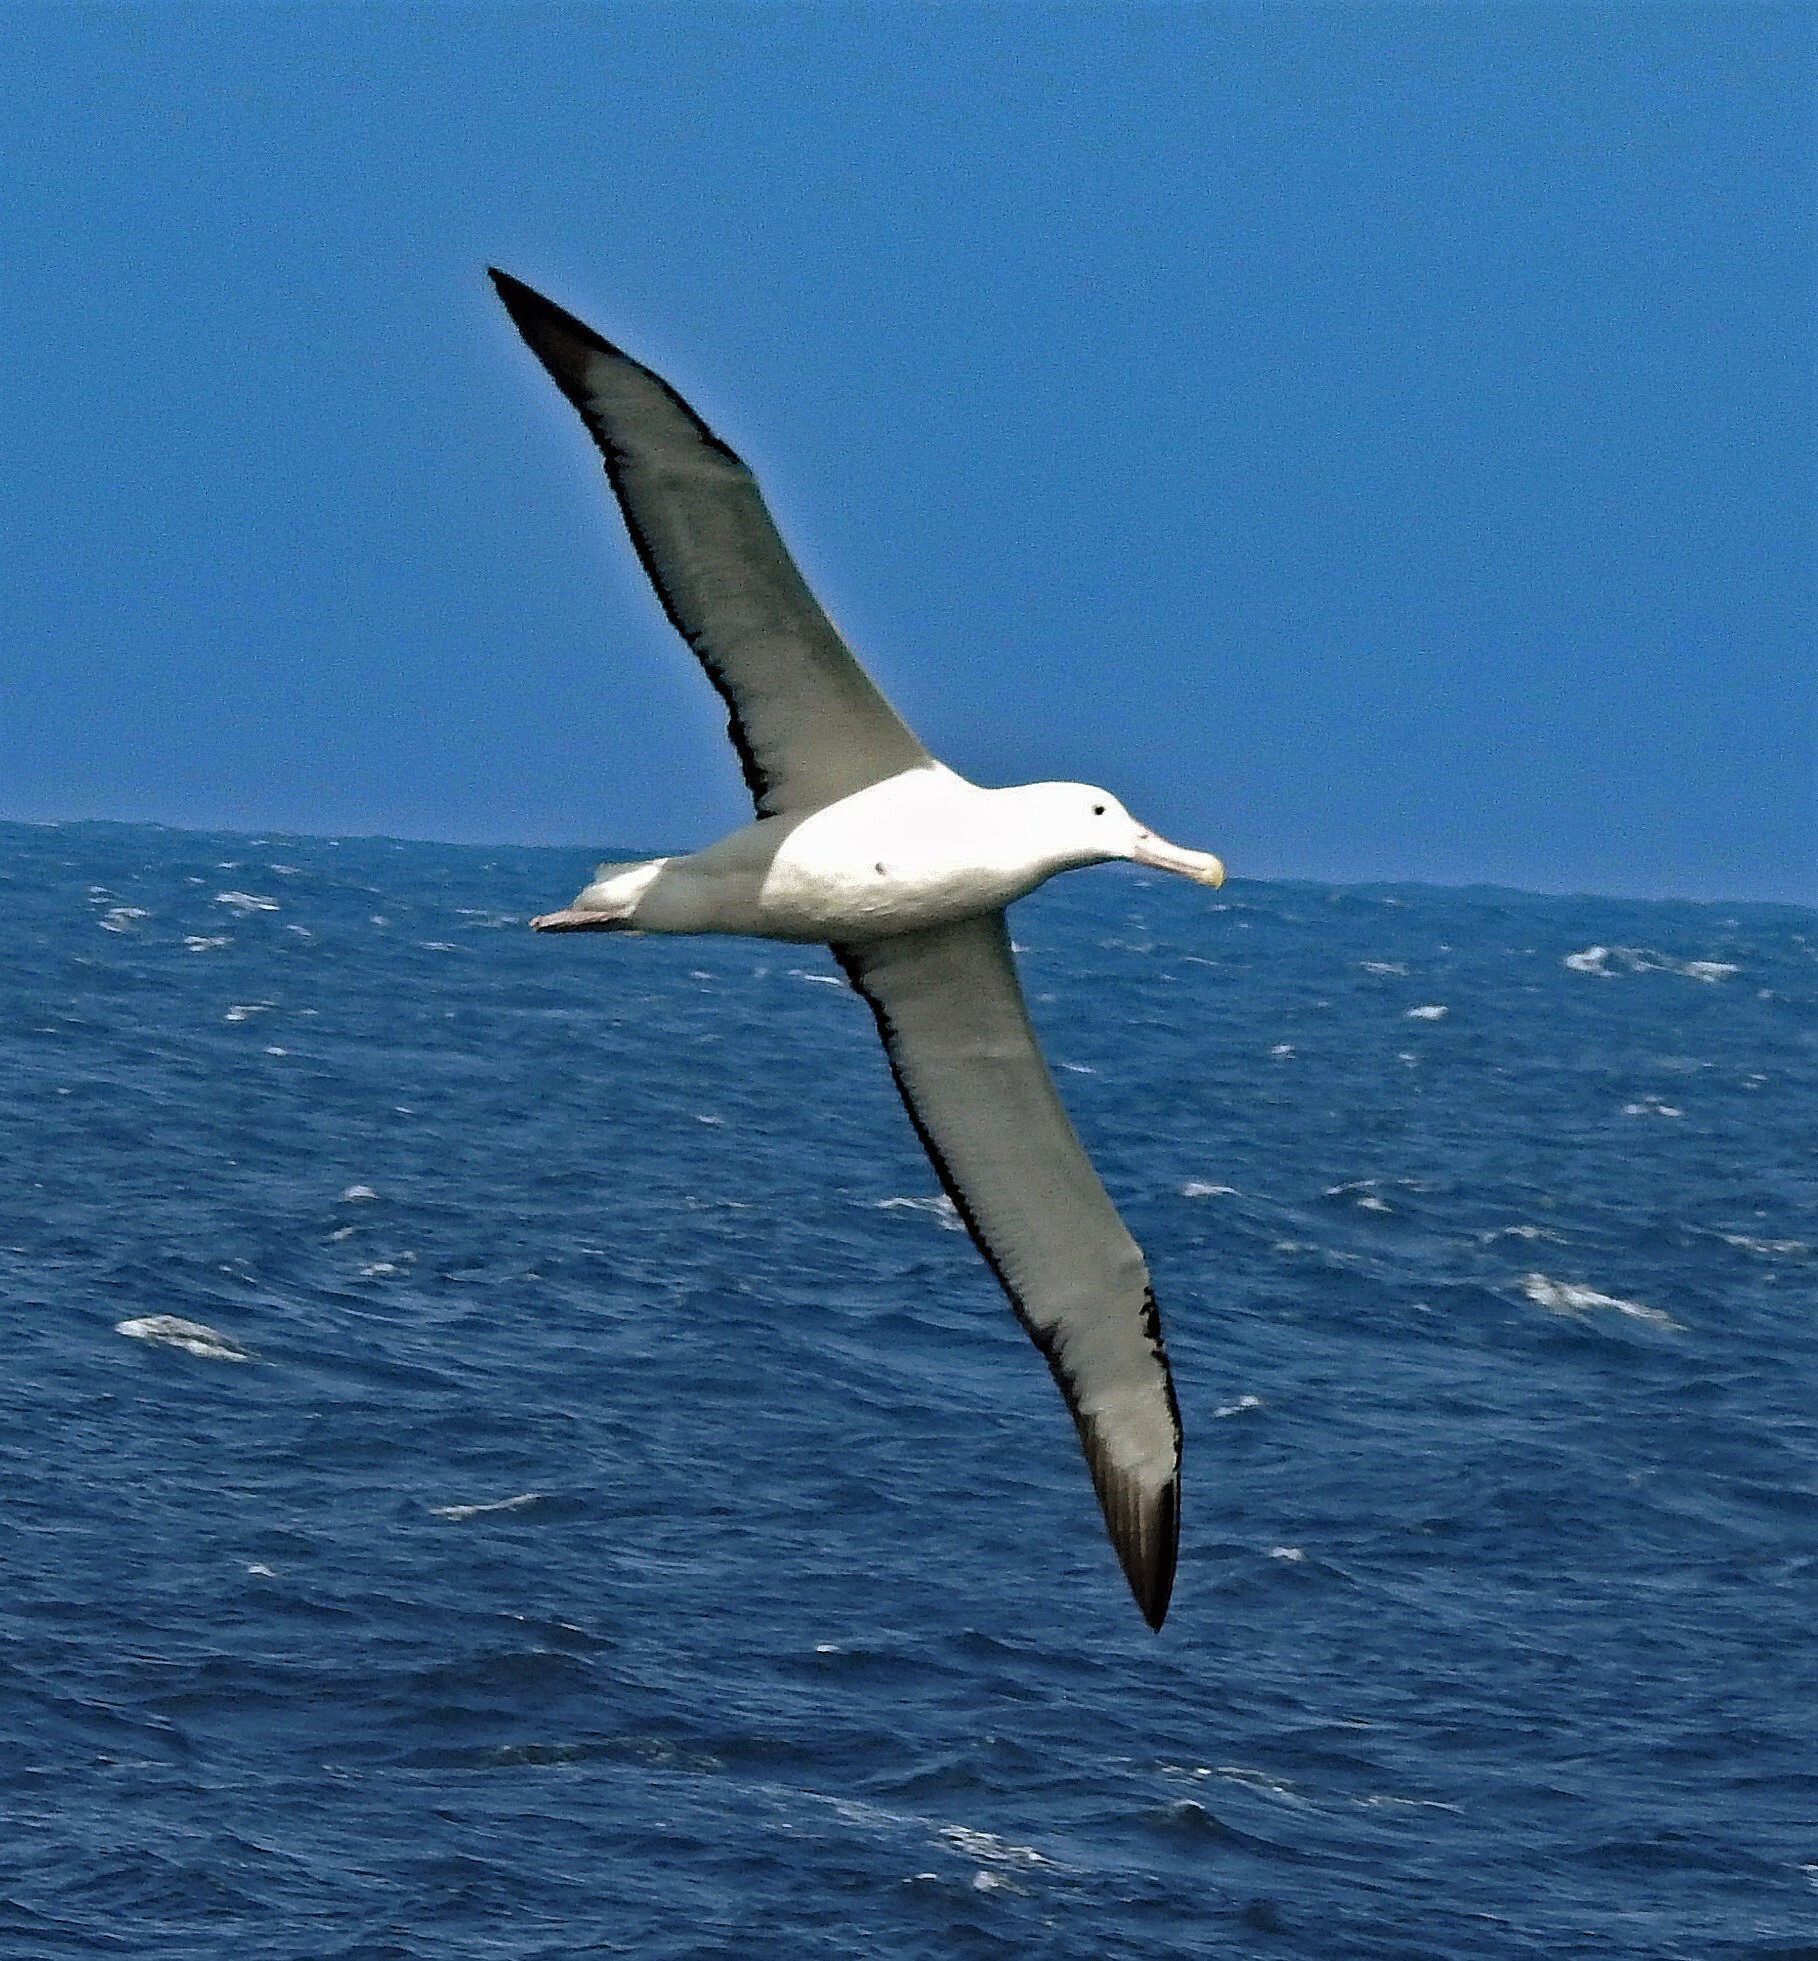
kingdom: Animalia
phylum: Chordata
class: Aves
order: Procellariiformes
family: Diomedeidae
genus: Diomedea
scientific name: Diomedea sanfordi
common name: Northern royal albatross
